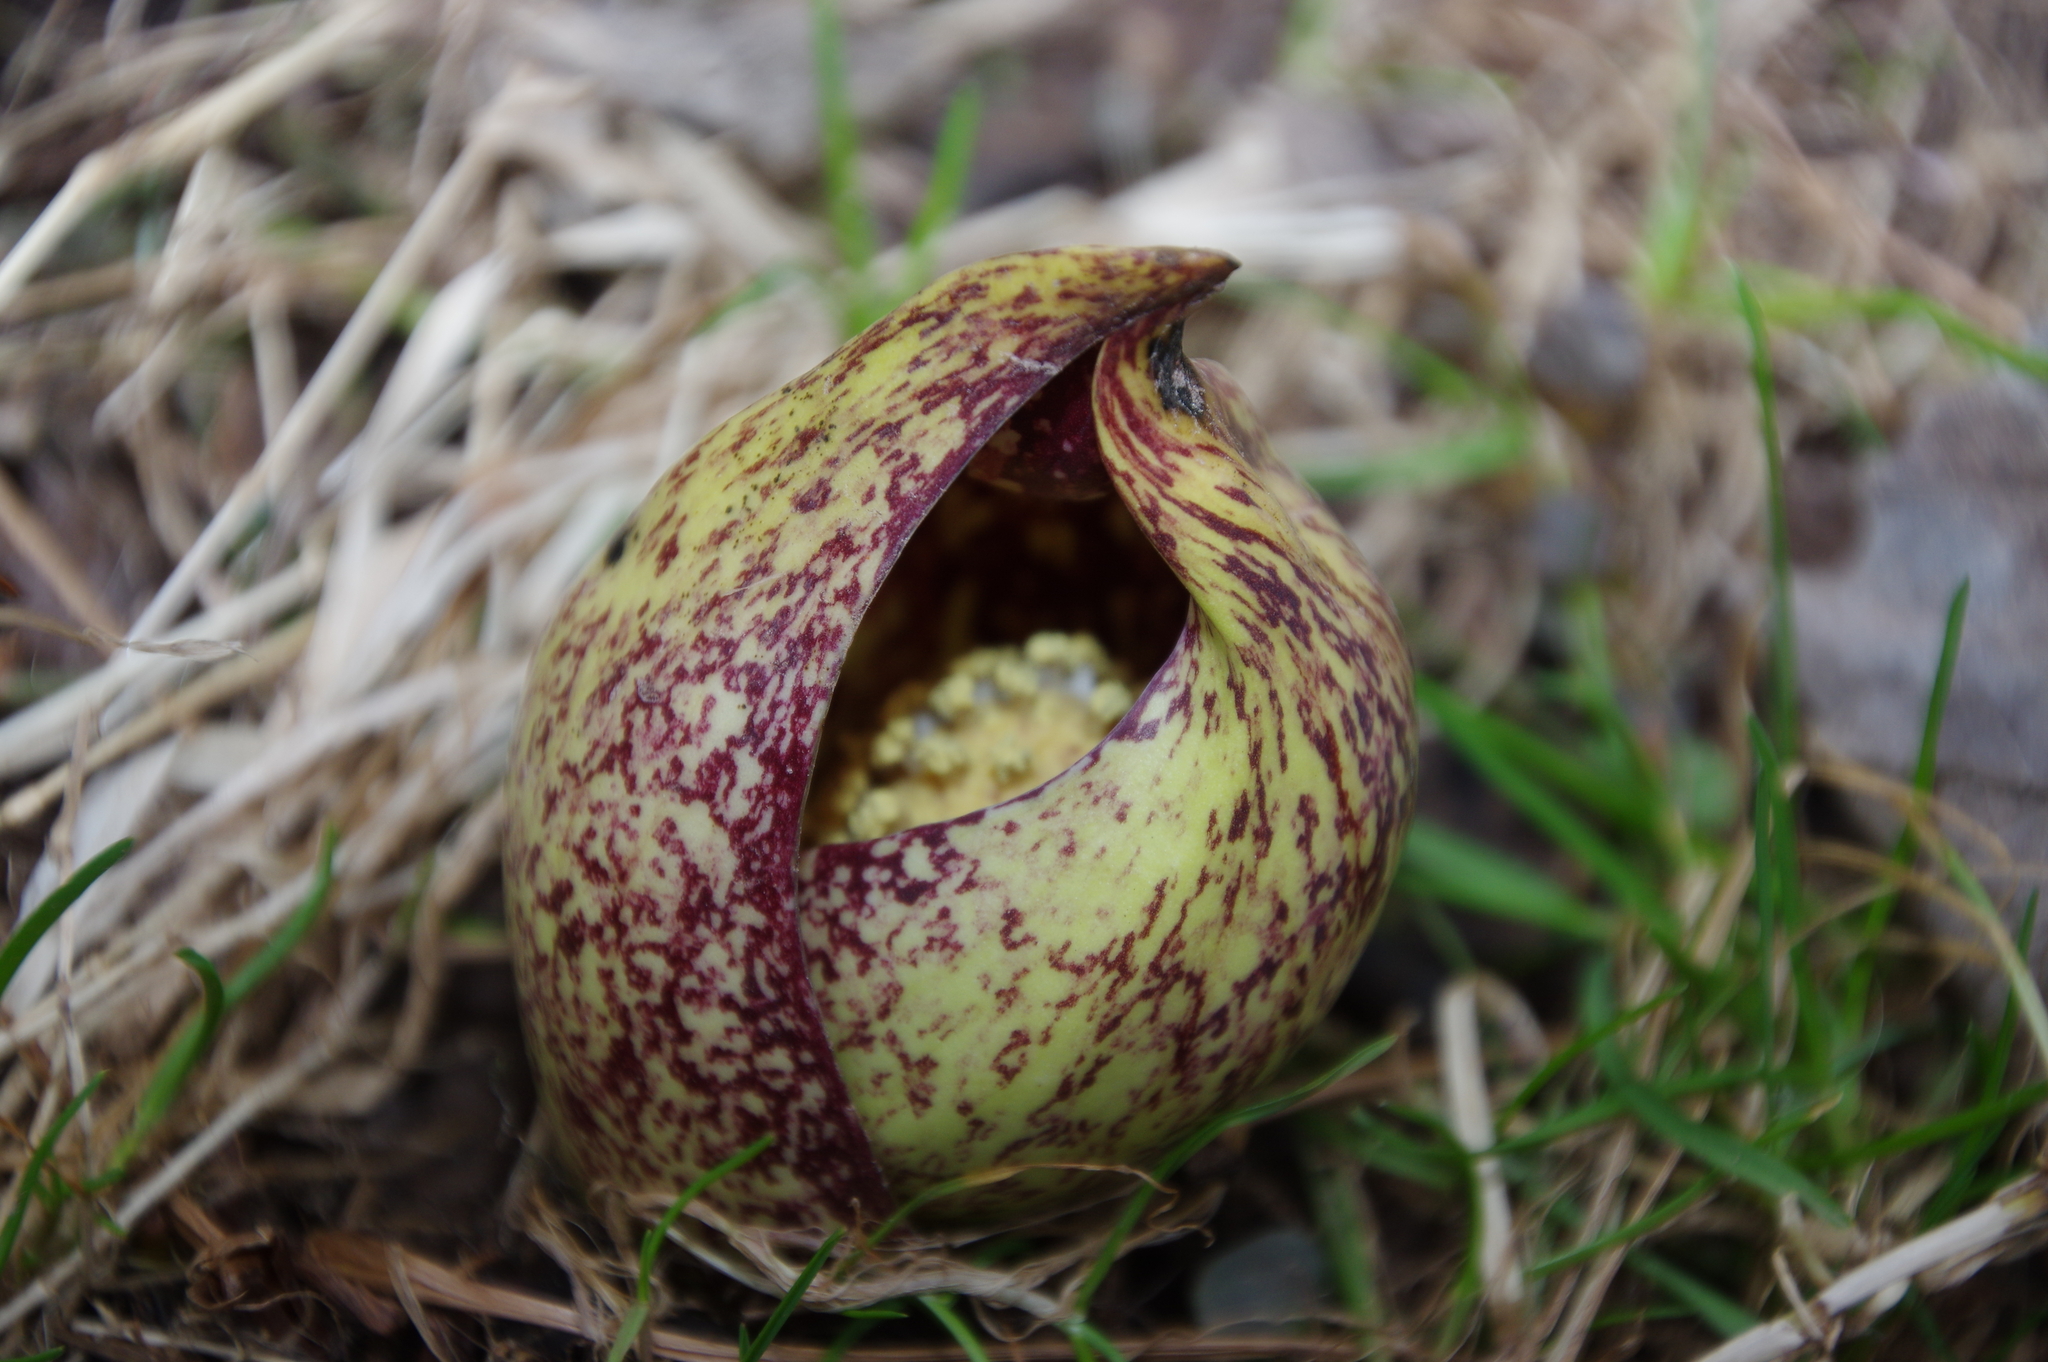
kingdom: Plantae
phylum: Tracheophyta
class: Liliopsida
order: Alismatales
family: Araceae
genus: Symplocarpus
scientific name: Symplocarpus foetidus
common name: Eastern skunk cabbage
